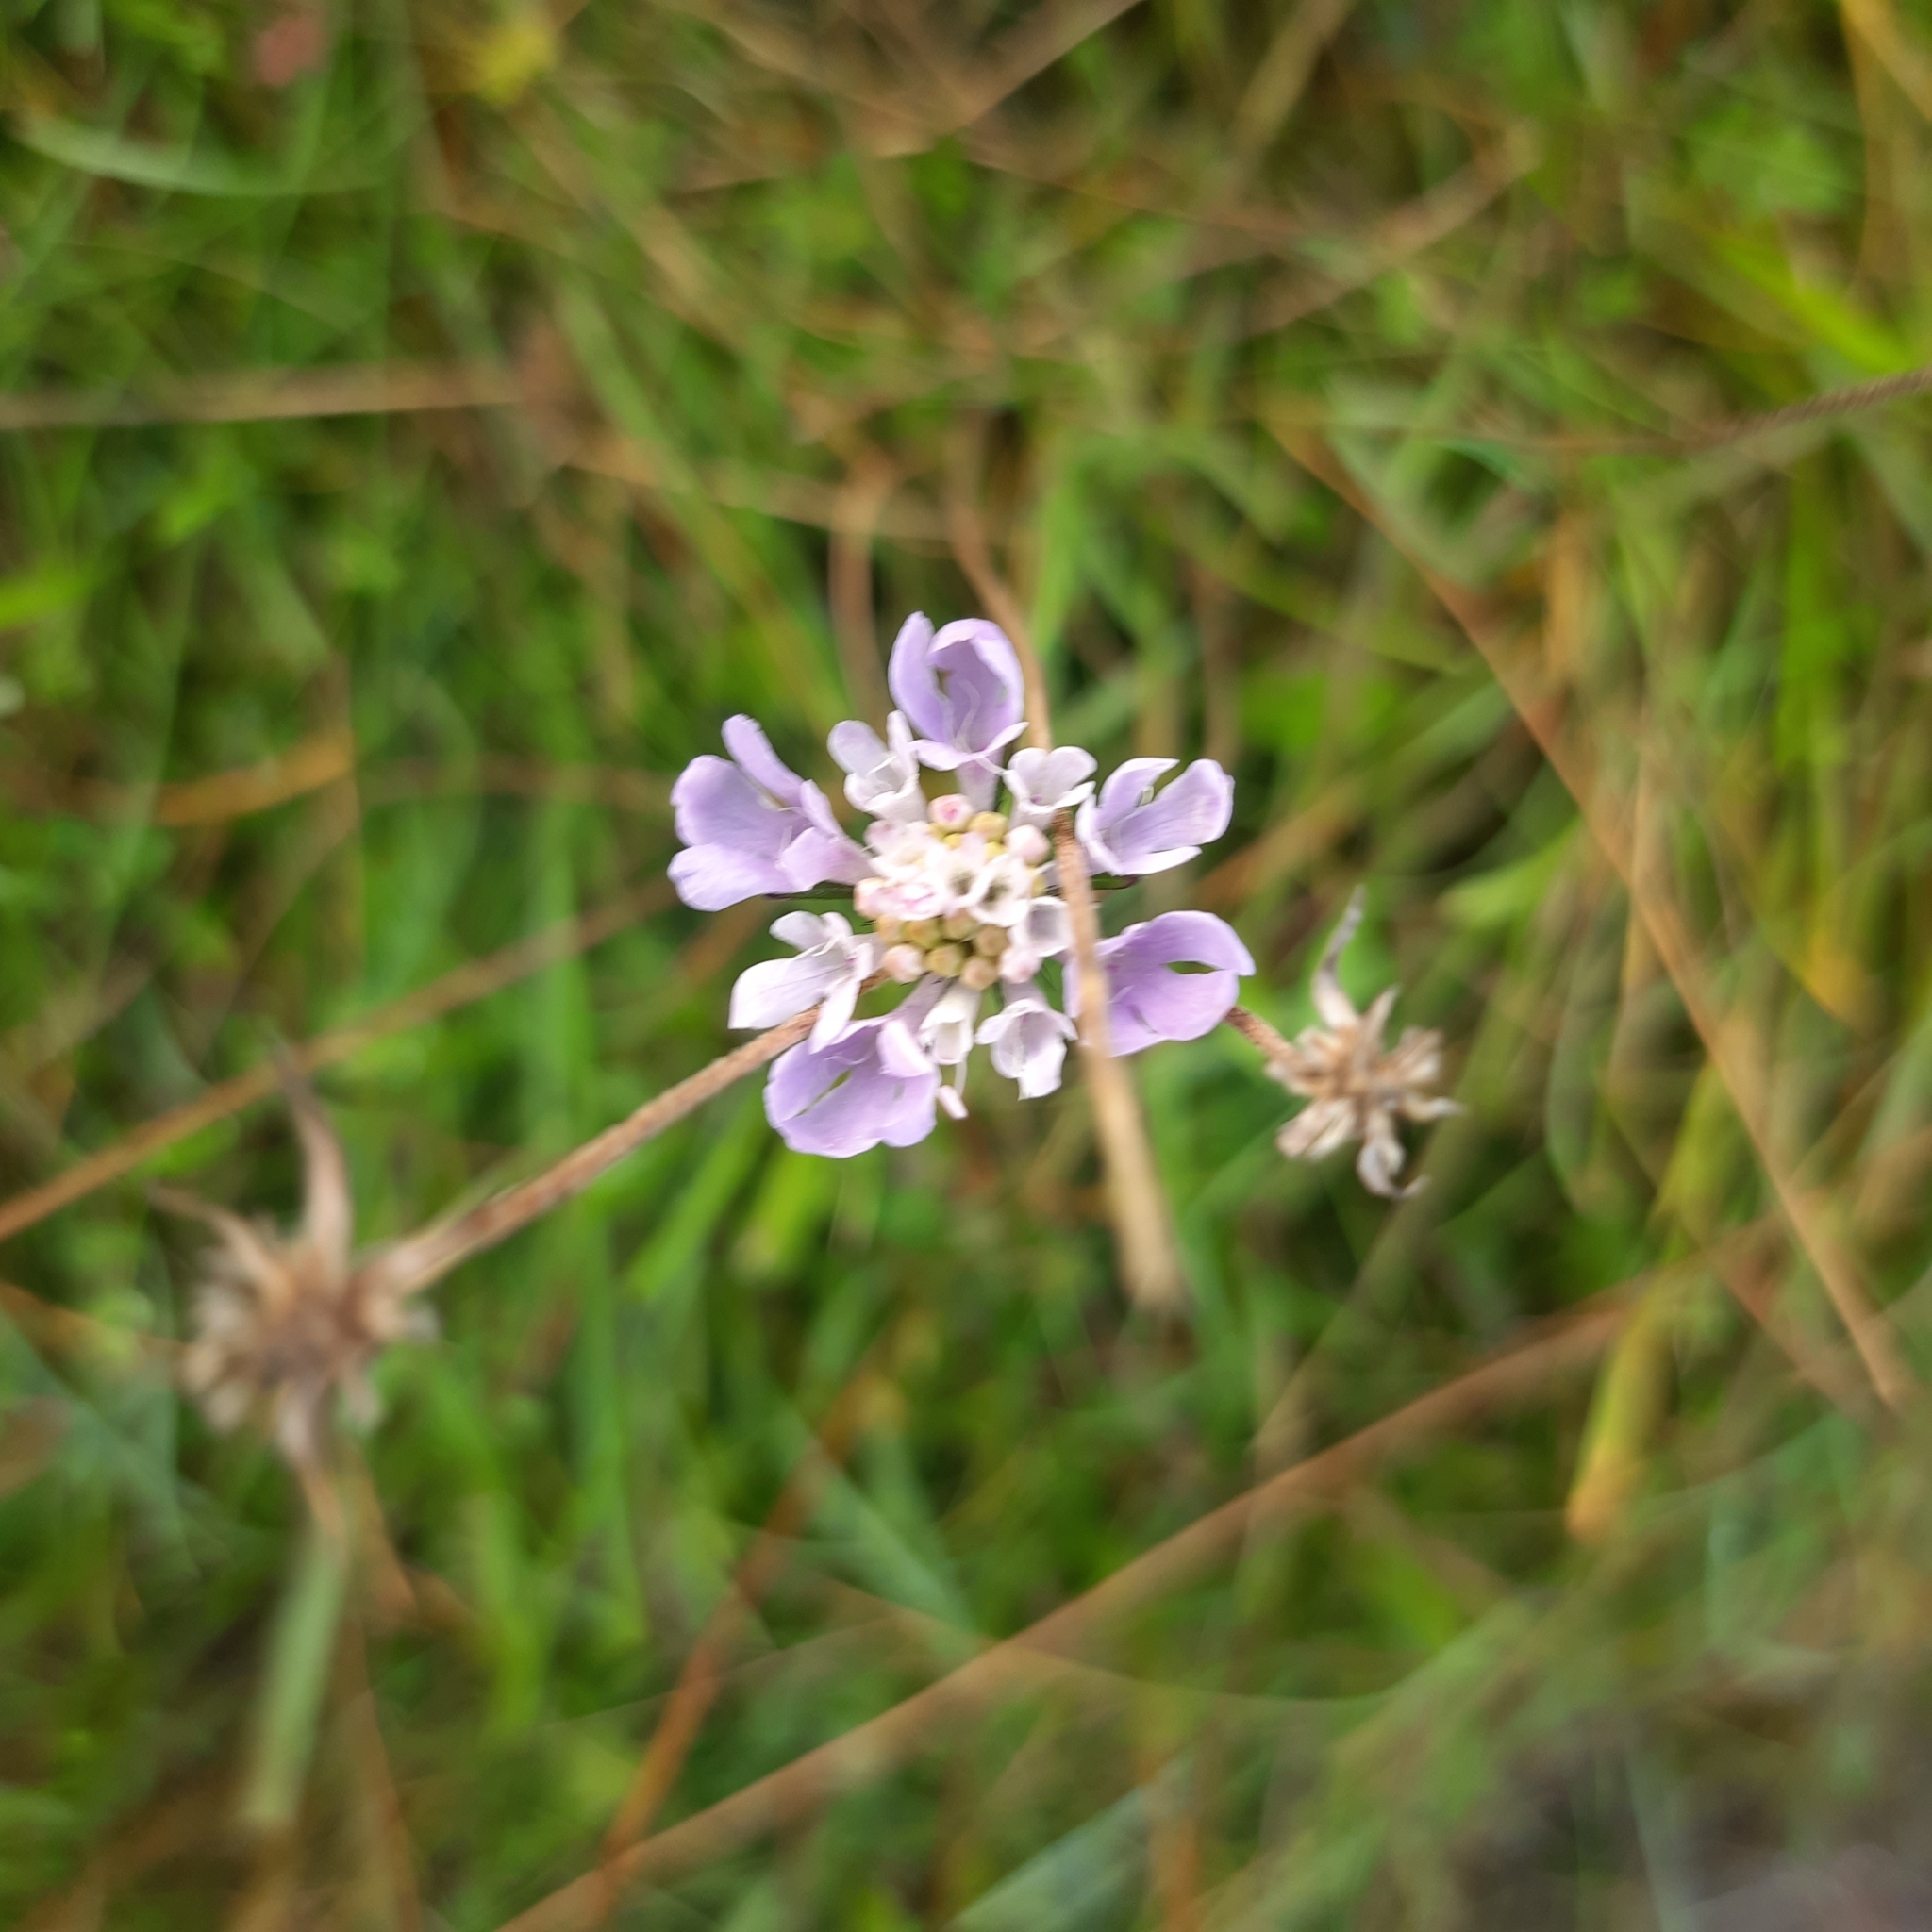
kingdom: Plantae
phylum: Tracheophyta
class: Magnoliopsida
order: Dipsacales
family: Caprifoliaceae
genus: Scabiosa
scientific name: Scabiosa columbaria
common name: Small scabious
